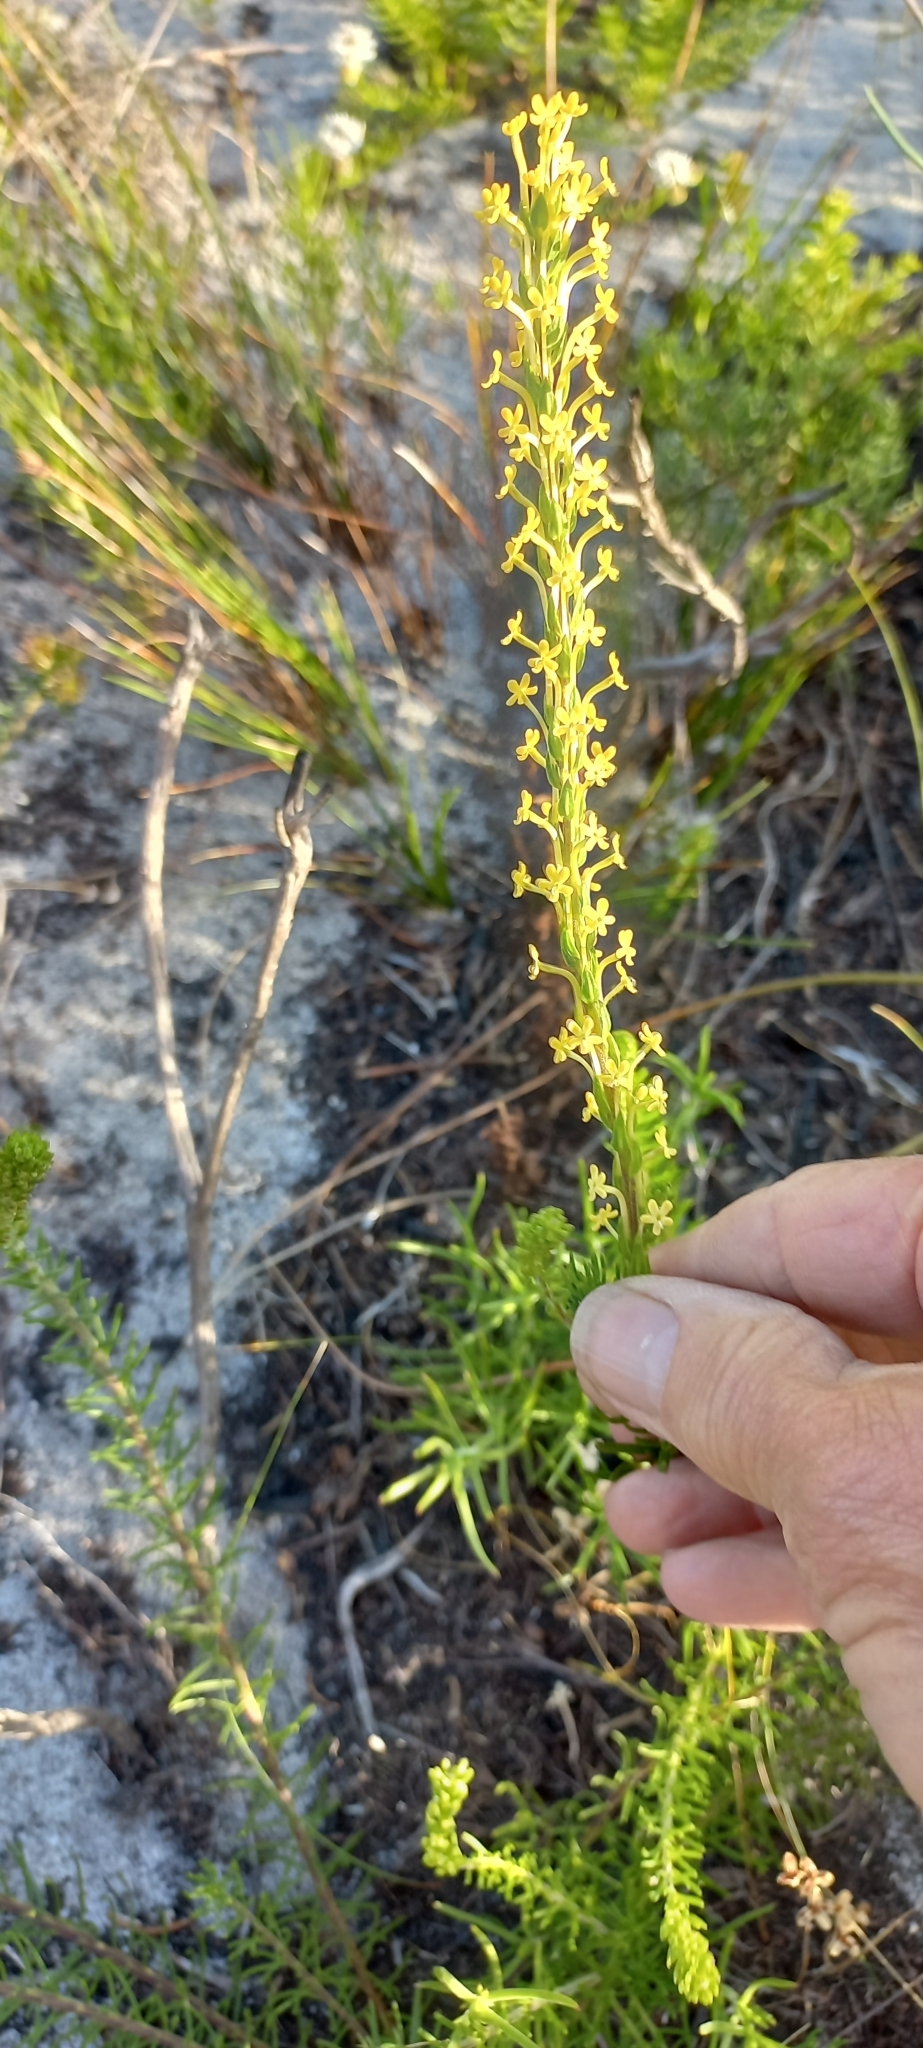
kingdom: Plantae
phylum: Tracheophyta
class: Magnoliopsida
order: Lamiales
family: Scrophulariaceae
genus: Microdon
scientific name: Microdon dubius
